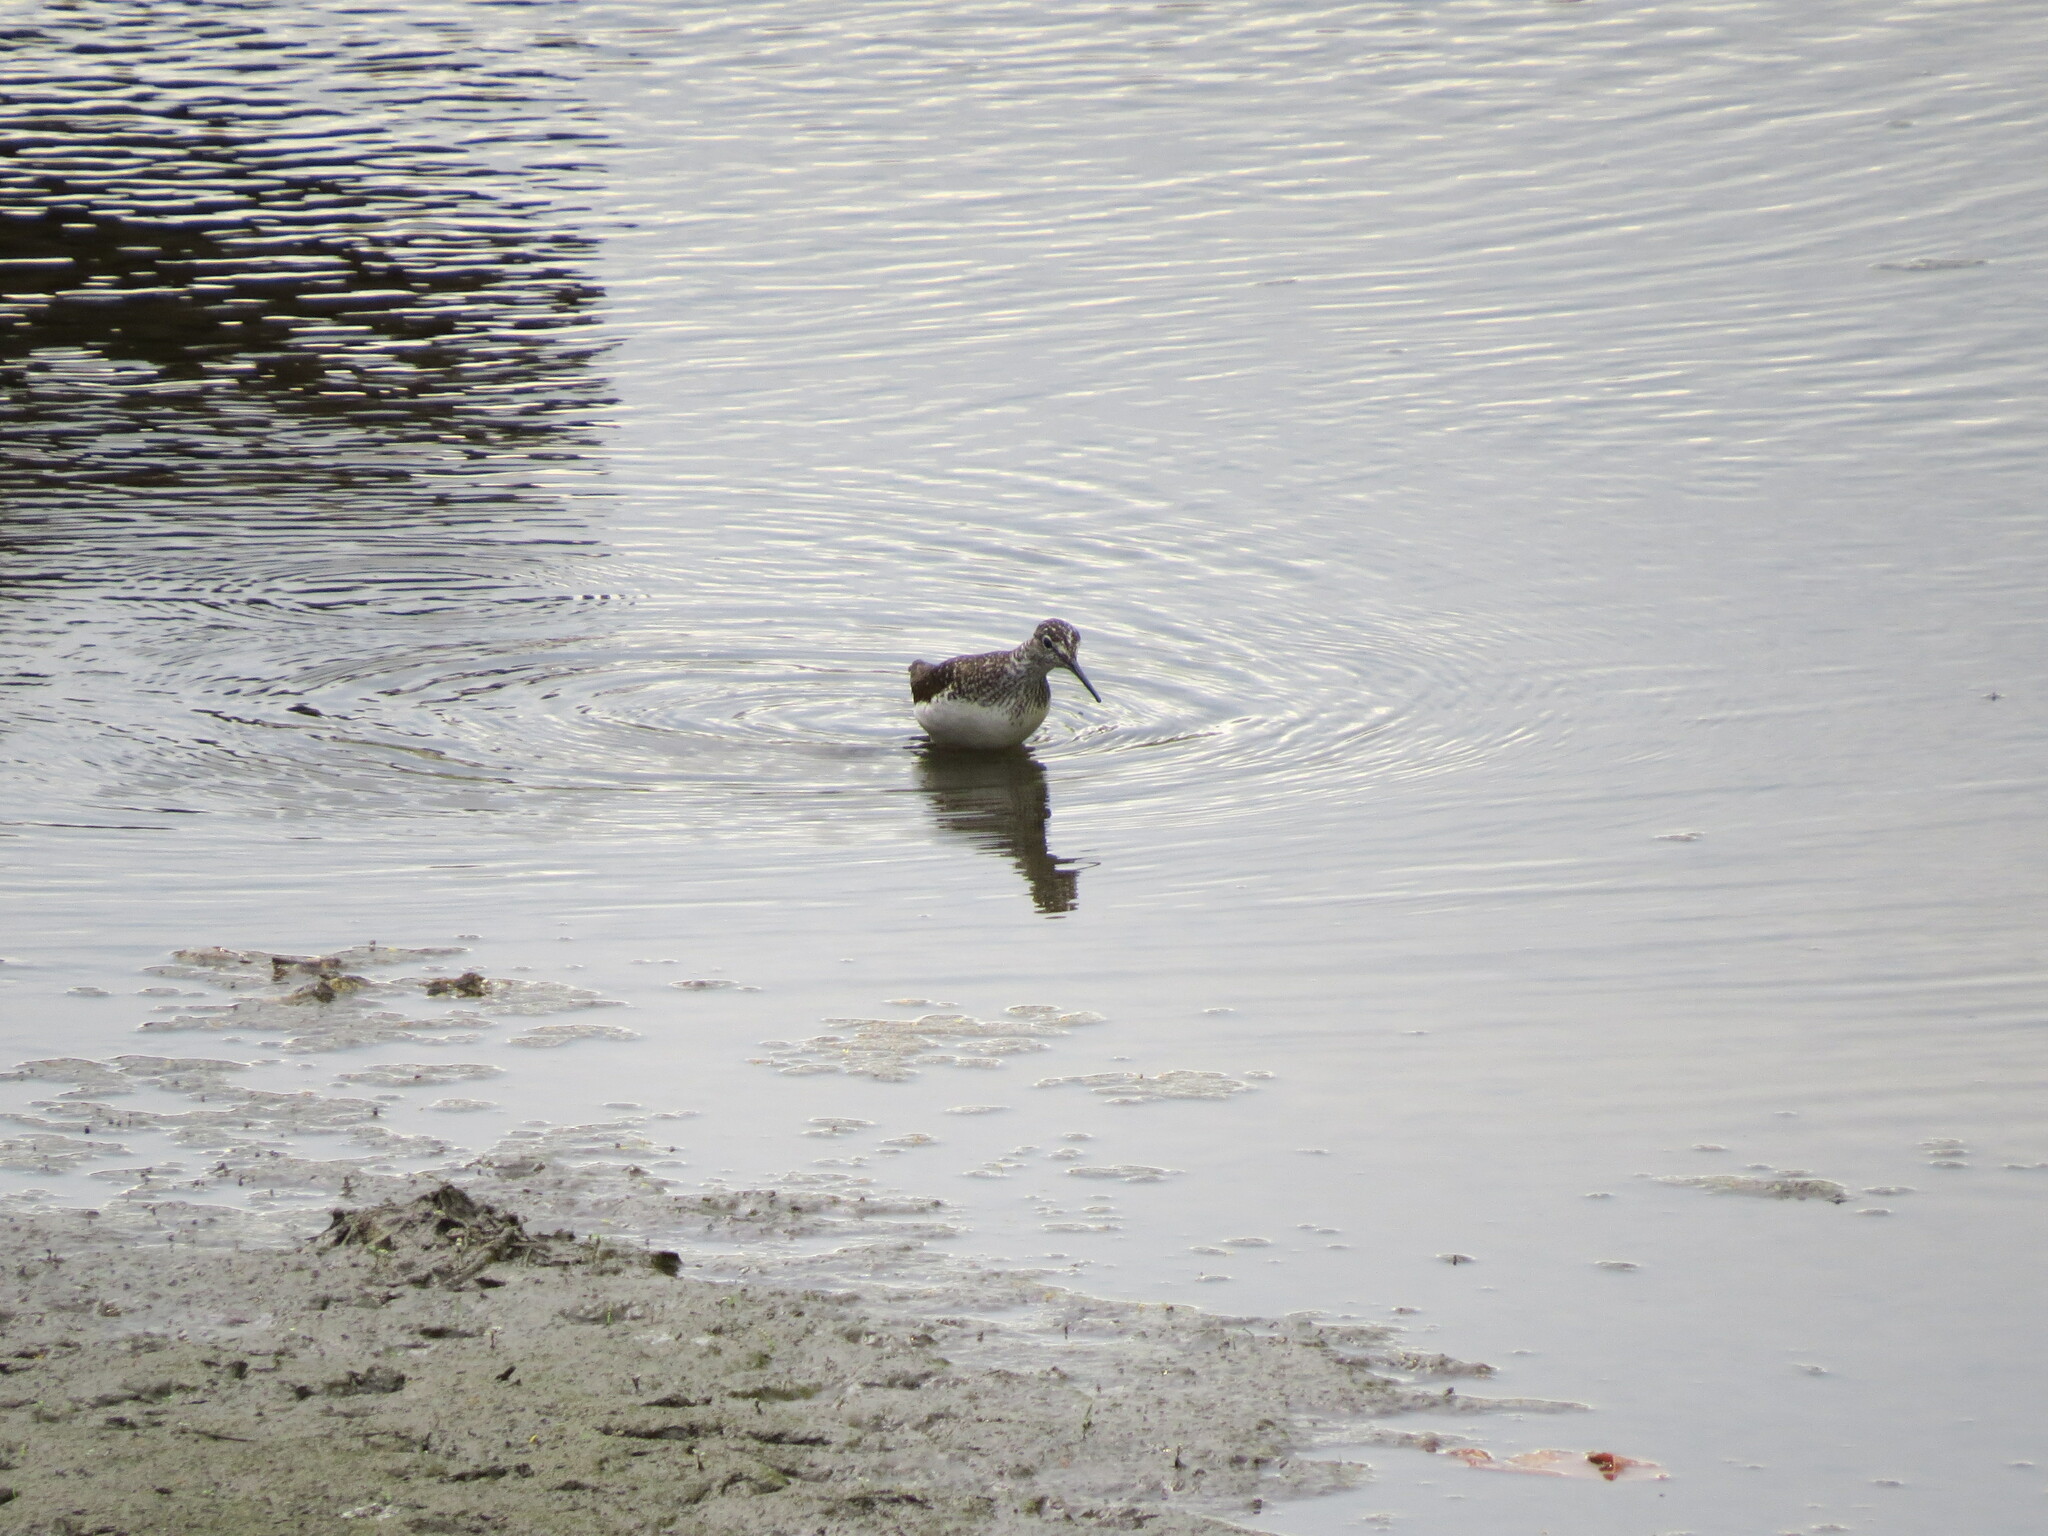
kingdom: Animalia
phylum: Chordata
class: Aves
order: Charadriiformes
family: Scolopacidae
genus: Tringa
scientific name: Tringa ochropus
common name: Green sandpiper
